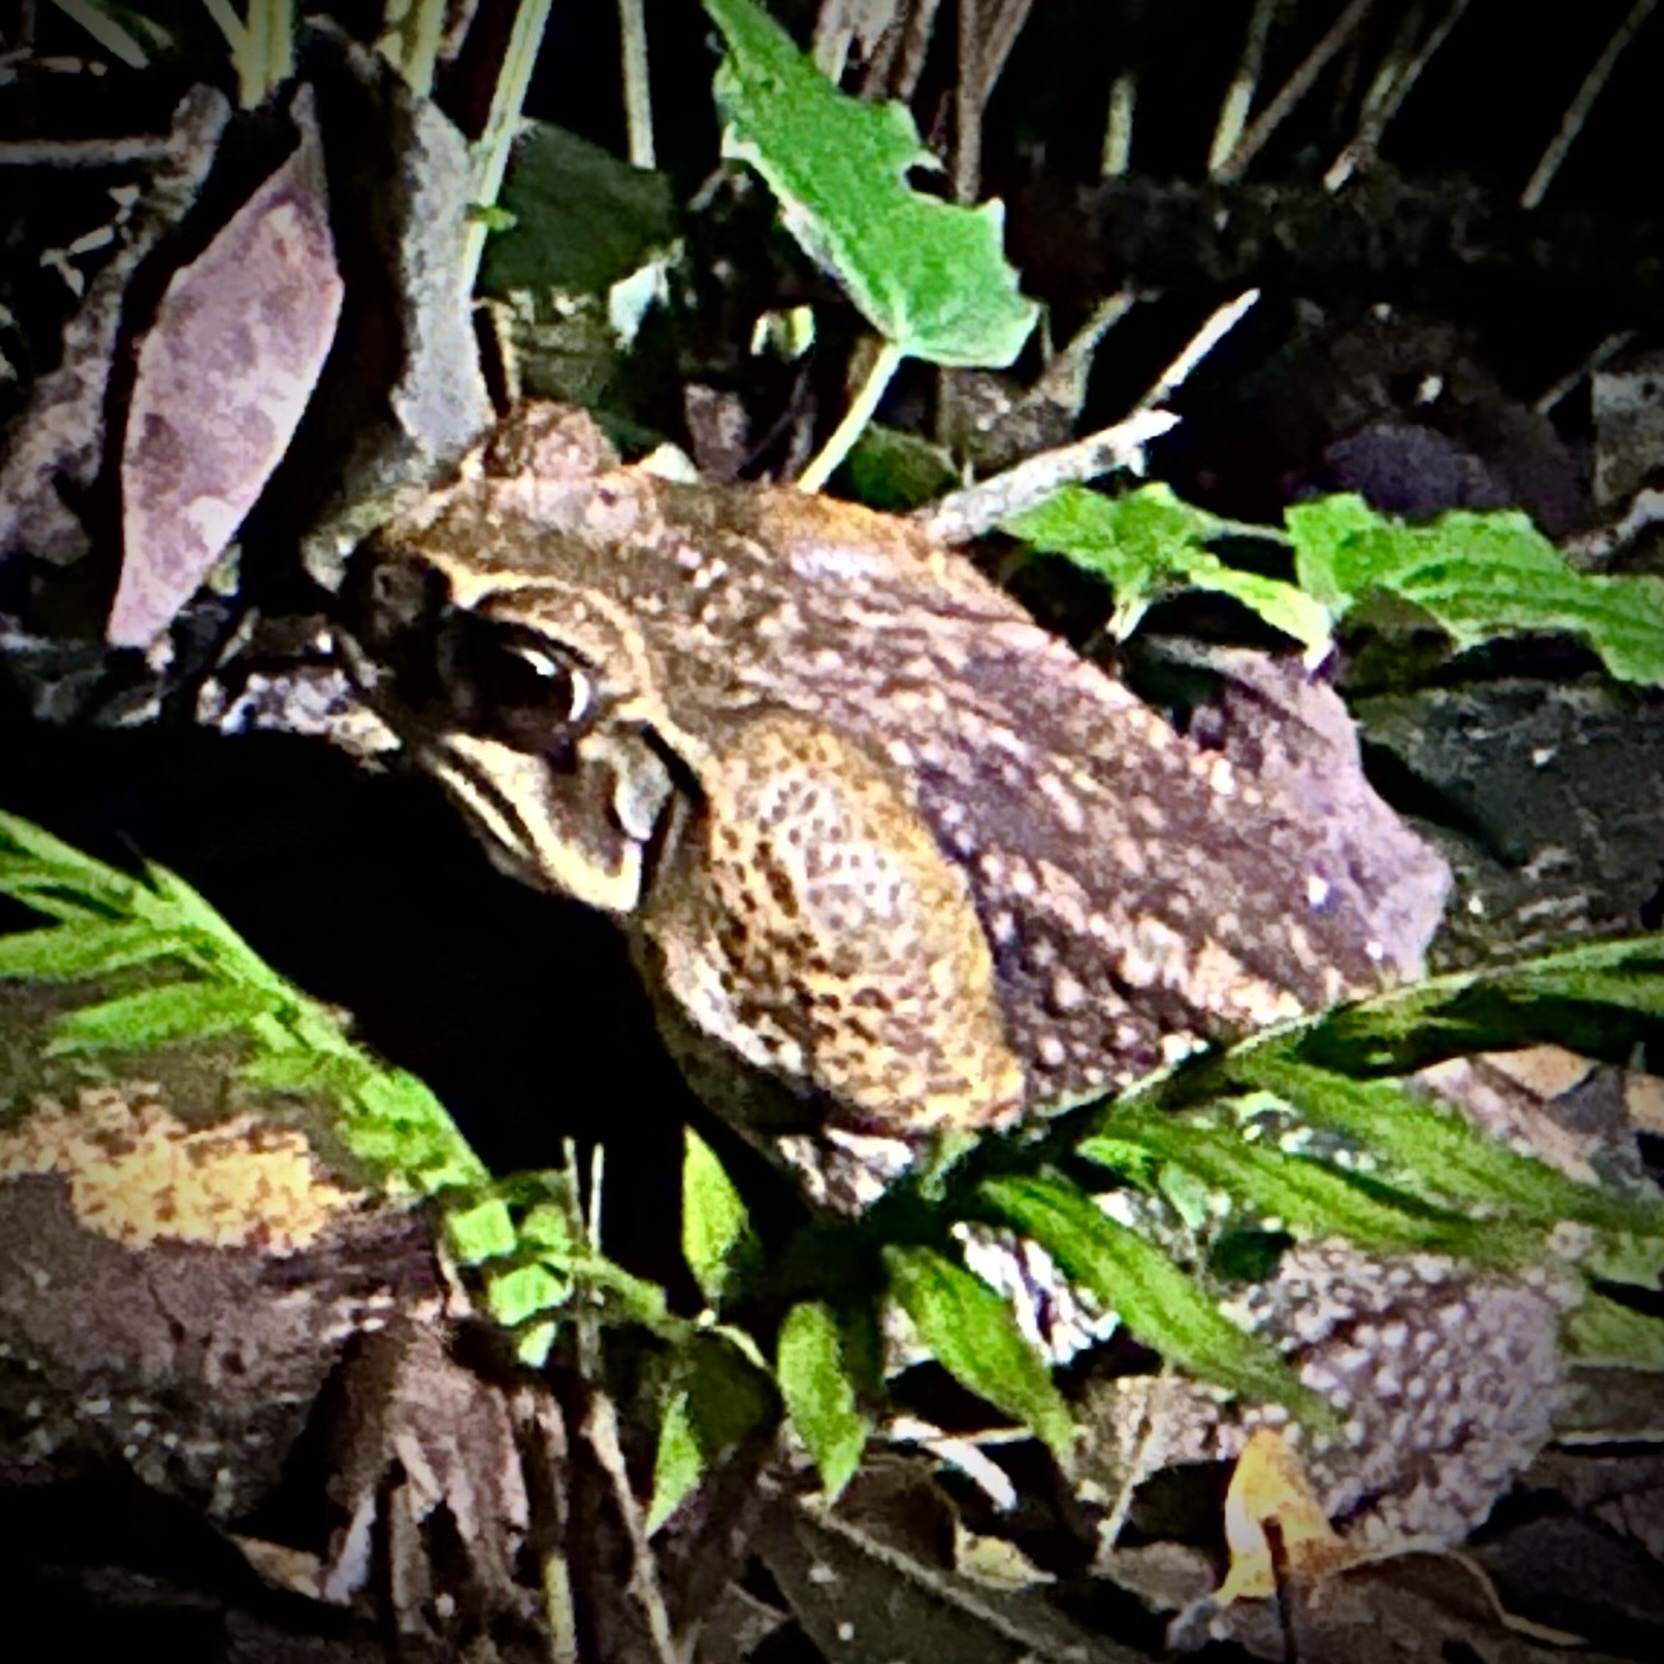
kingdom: Animalia
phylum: Chordata
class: Amphibia
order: Anura
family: Bufonidae
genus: Rhinella
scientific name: Rhinella horribilis
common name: Mesoamerican cane toad
